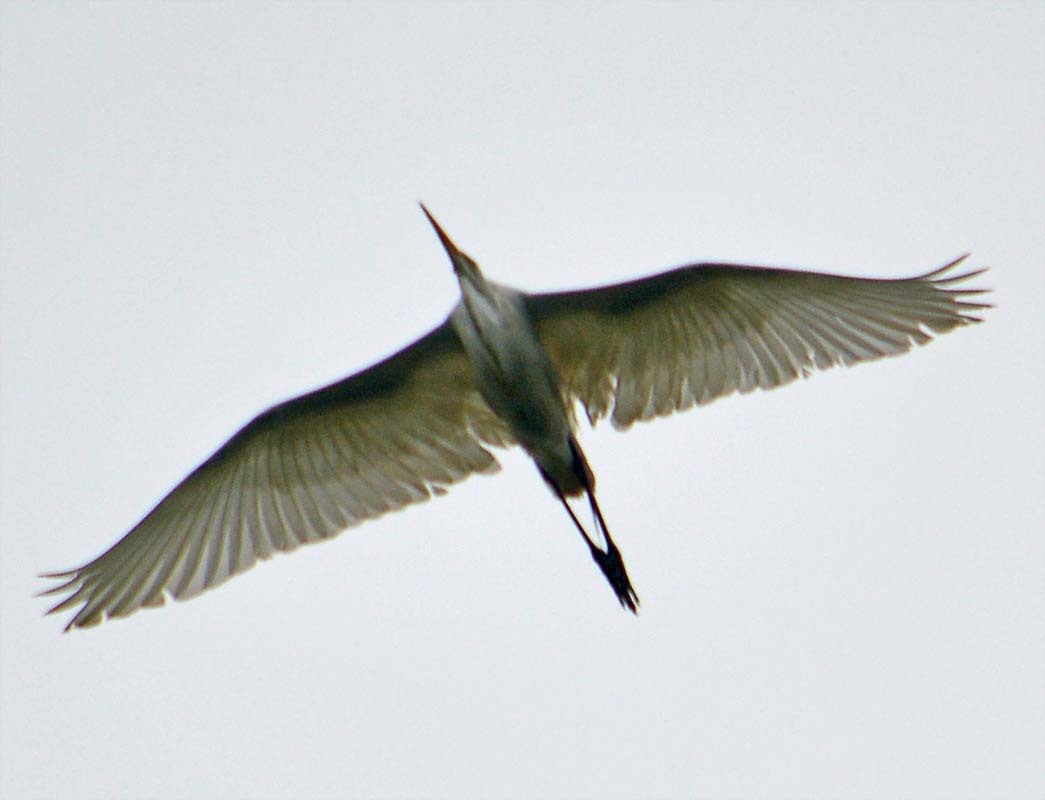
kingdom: Animalia
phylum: Chordata
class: Aves
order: Pelecaniformes
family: Ardeidae
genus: Ardea
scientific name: Ardea alba
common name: Great egret
